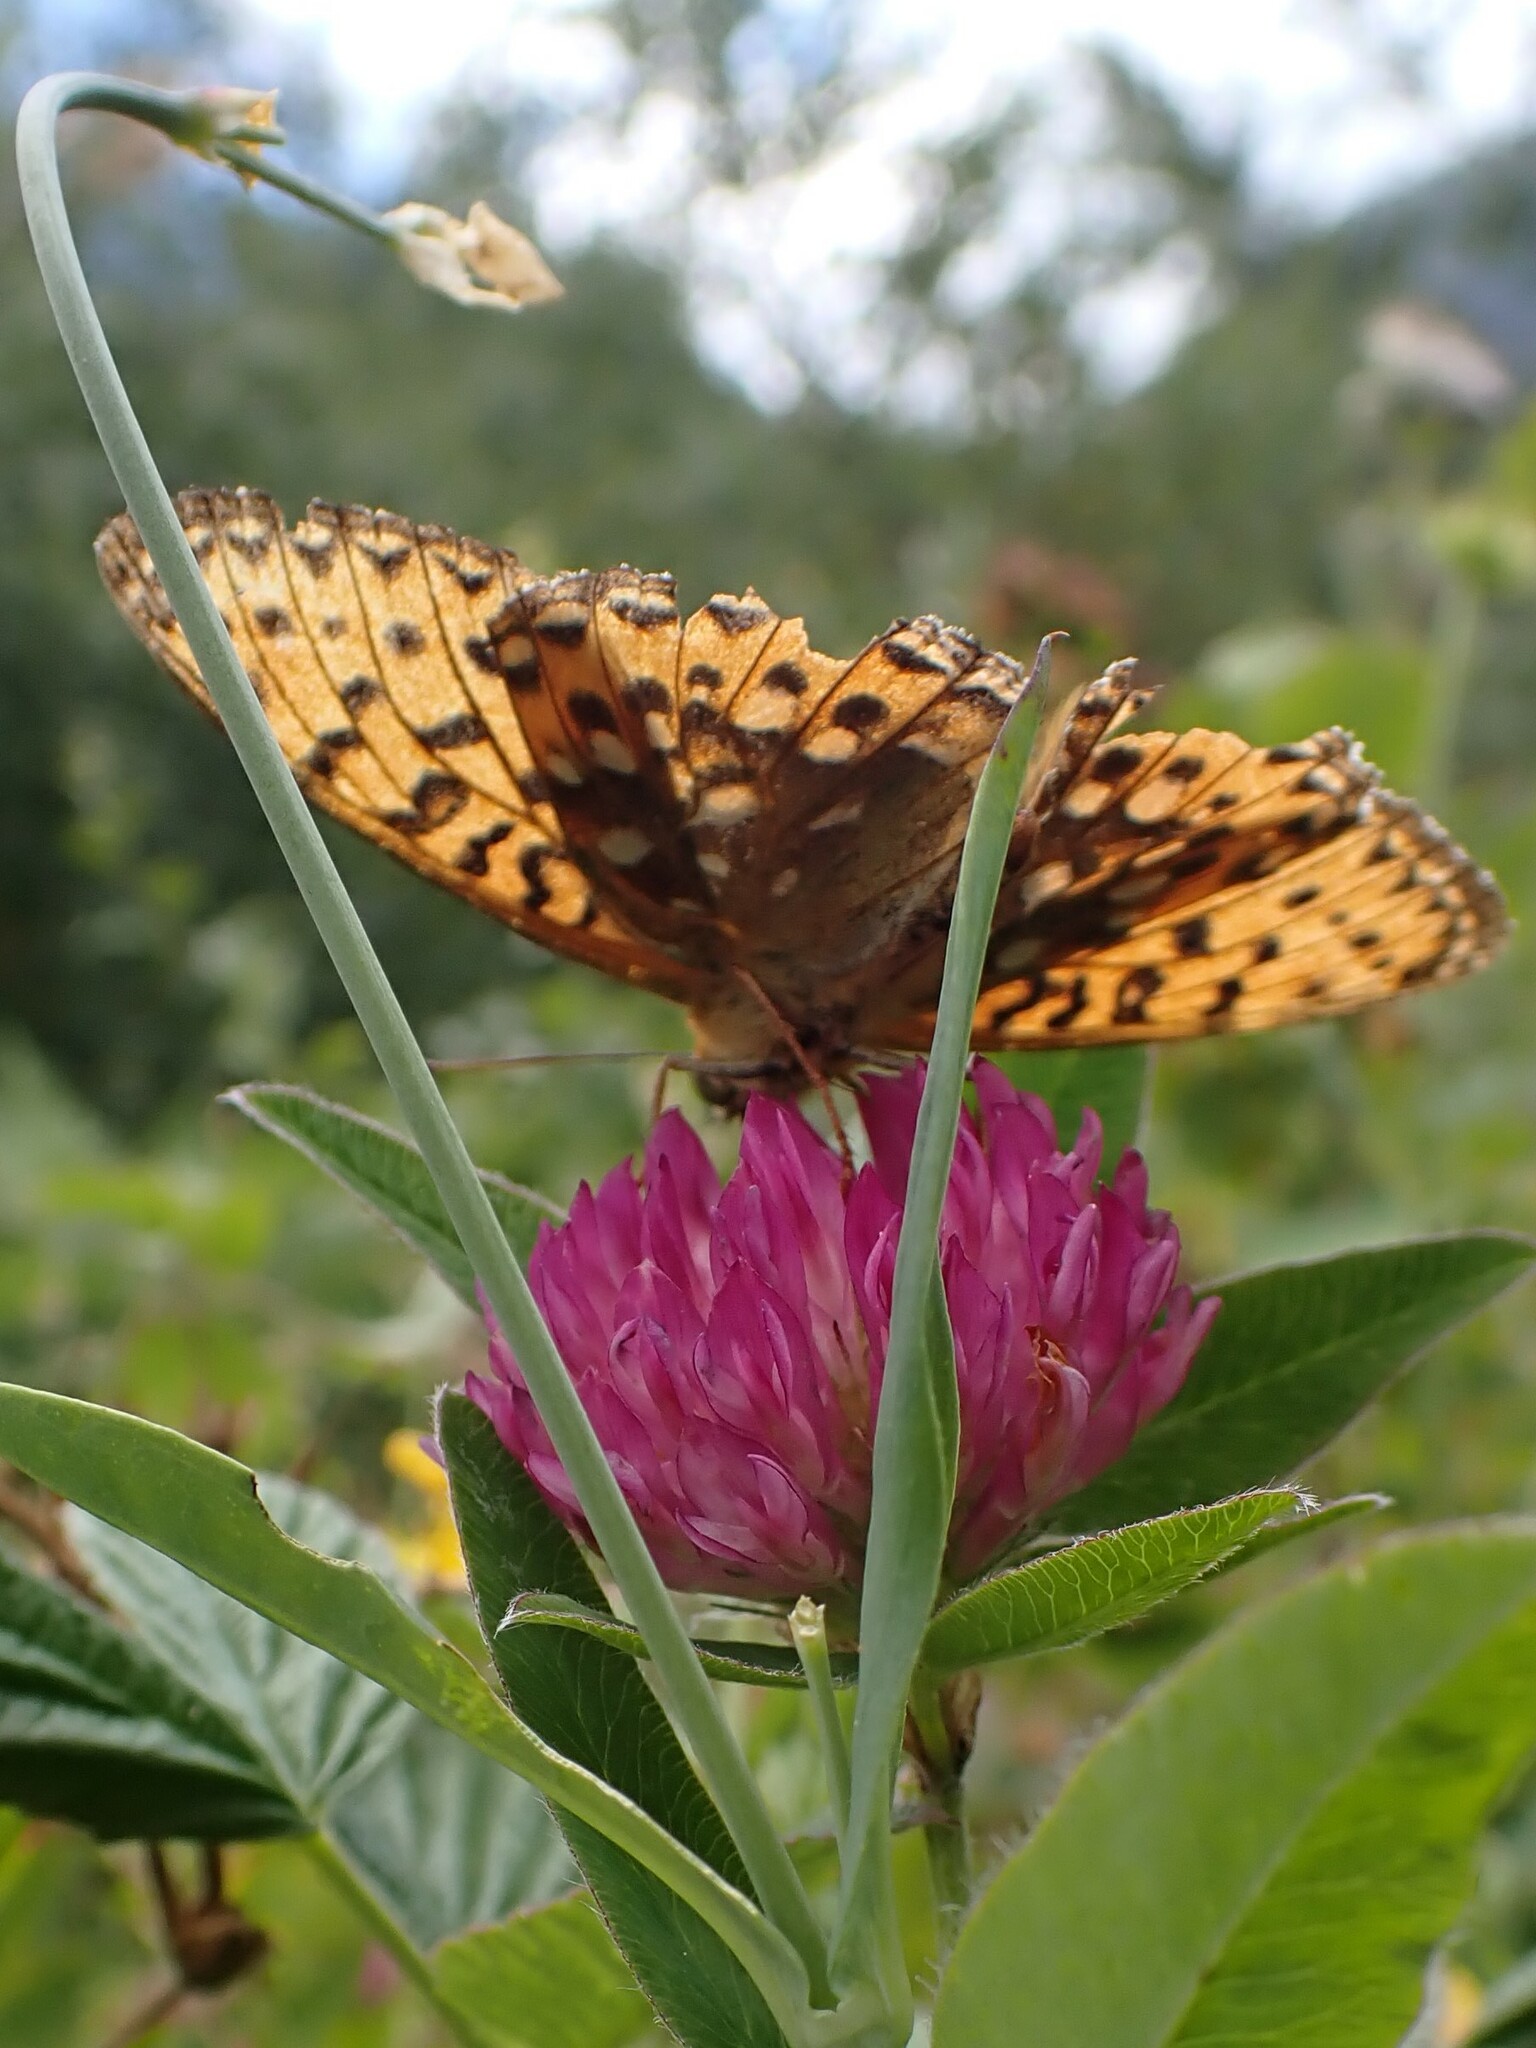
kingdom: Animalia
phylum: Arthropoda
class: Insecta
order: Lepidoptera
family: Nymphalidae
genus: Speyeria
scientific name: Speyeria aglaja
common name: Dark green fritillary
